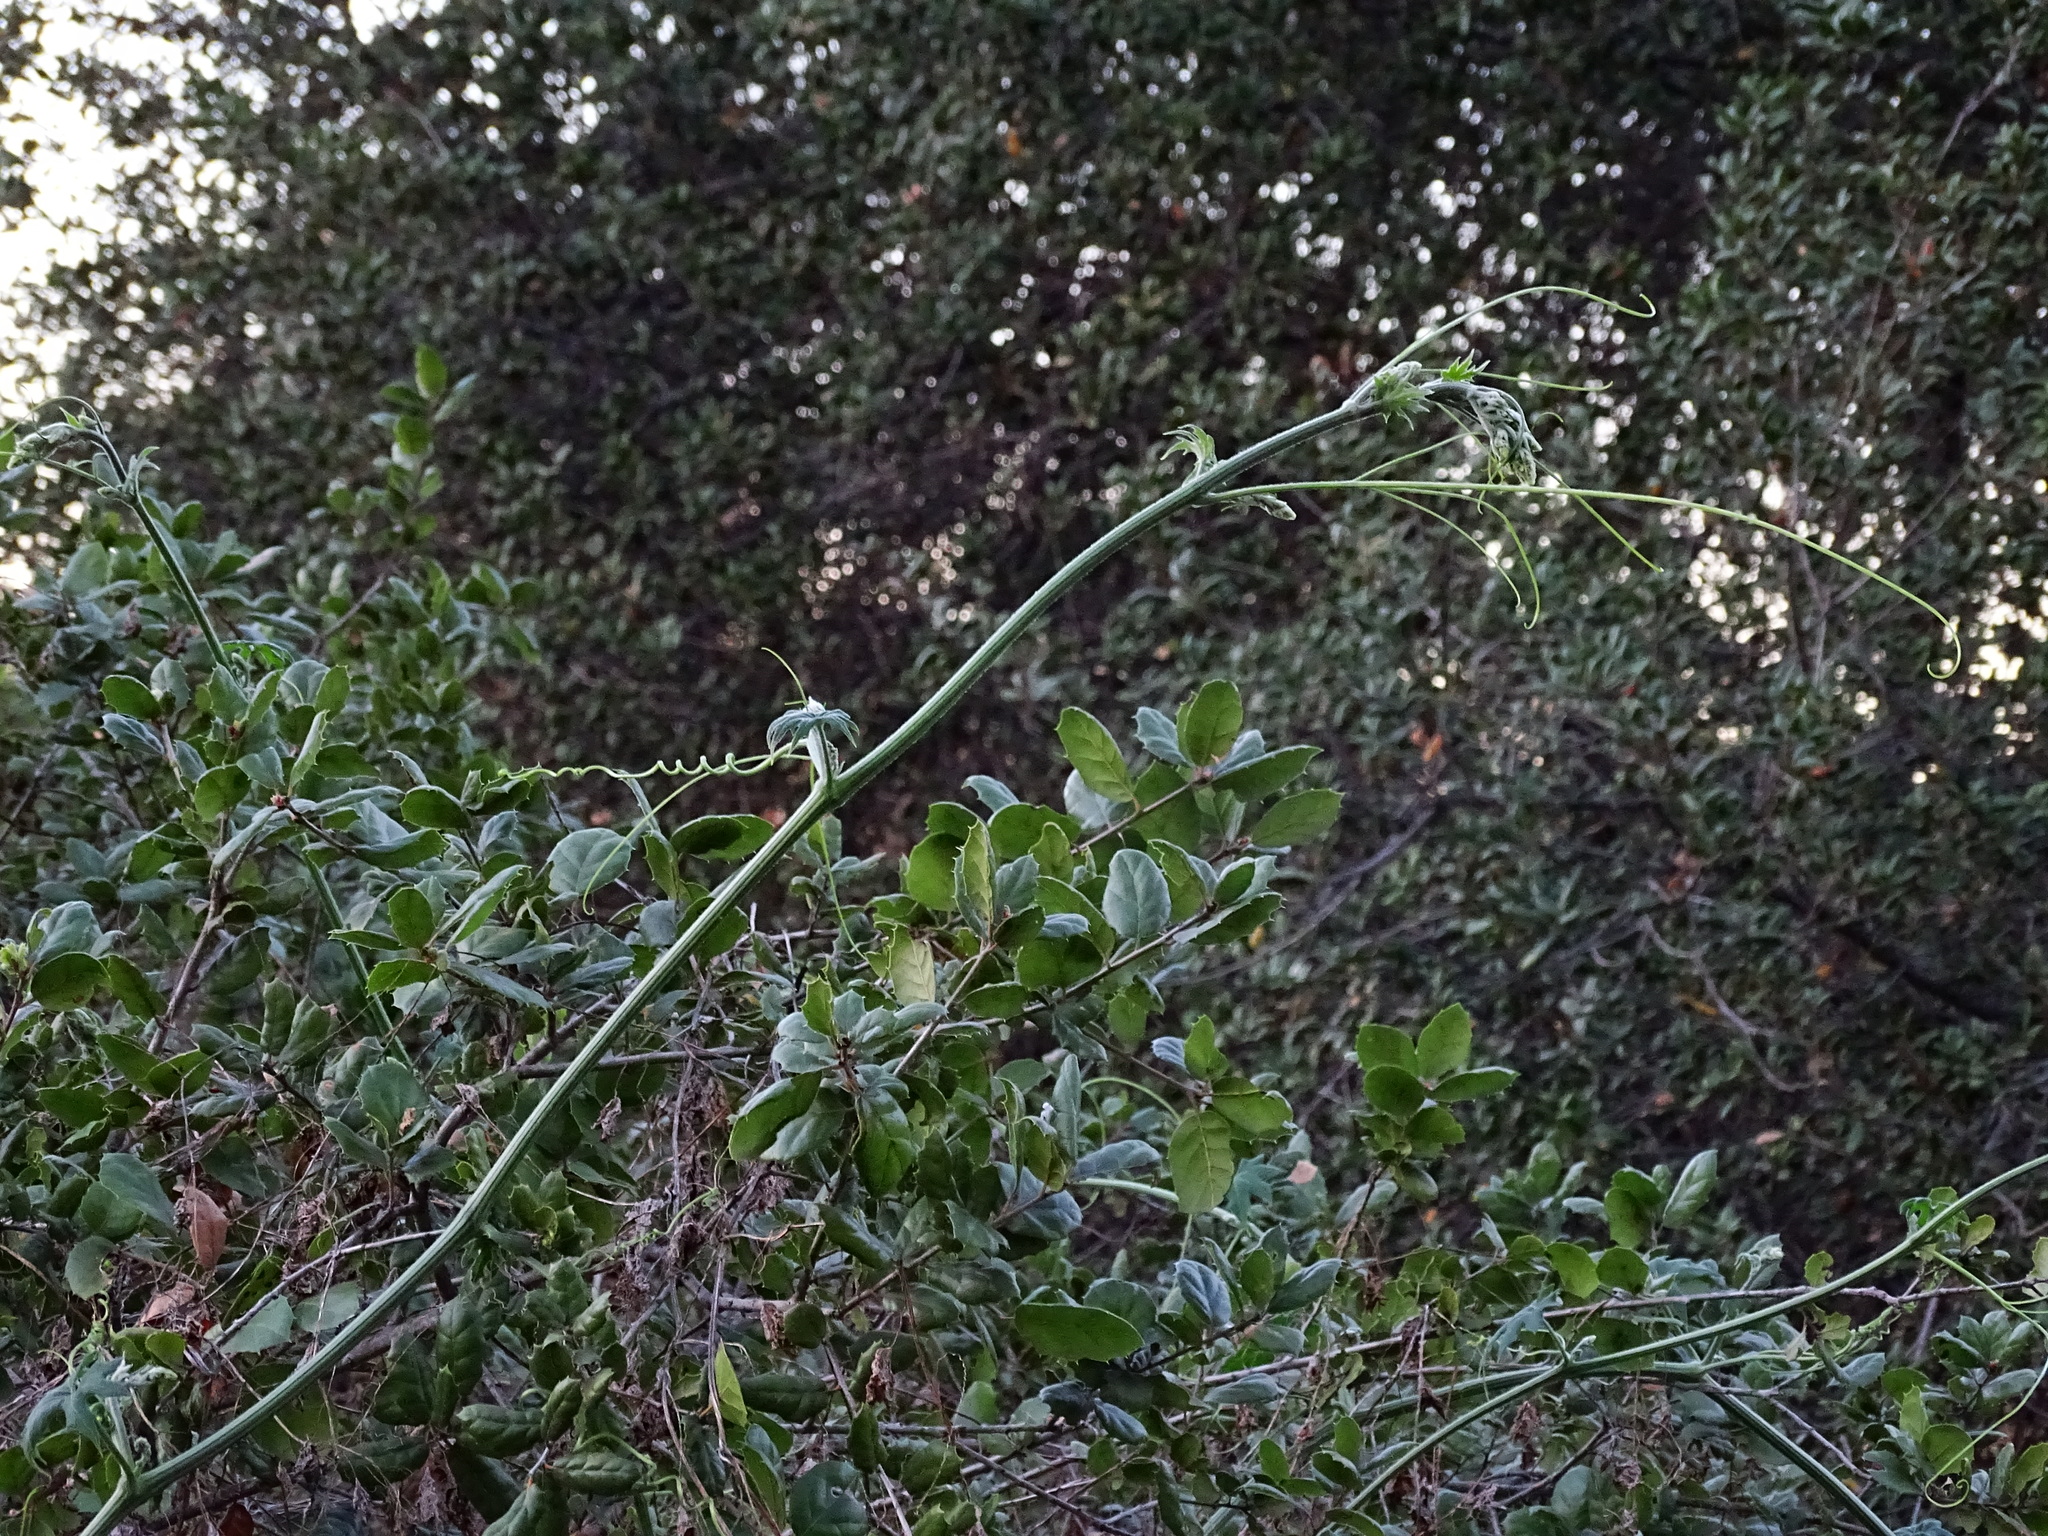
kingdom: Plantae
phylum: Tracheophyta
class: Magnoliopsida
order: Cucurbitales
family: Cucurbitaceae
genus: Marah
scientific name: Marah macrocarpa
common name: Cucamonga manroot
